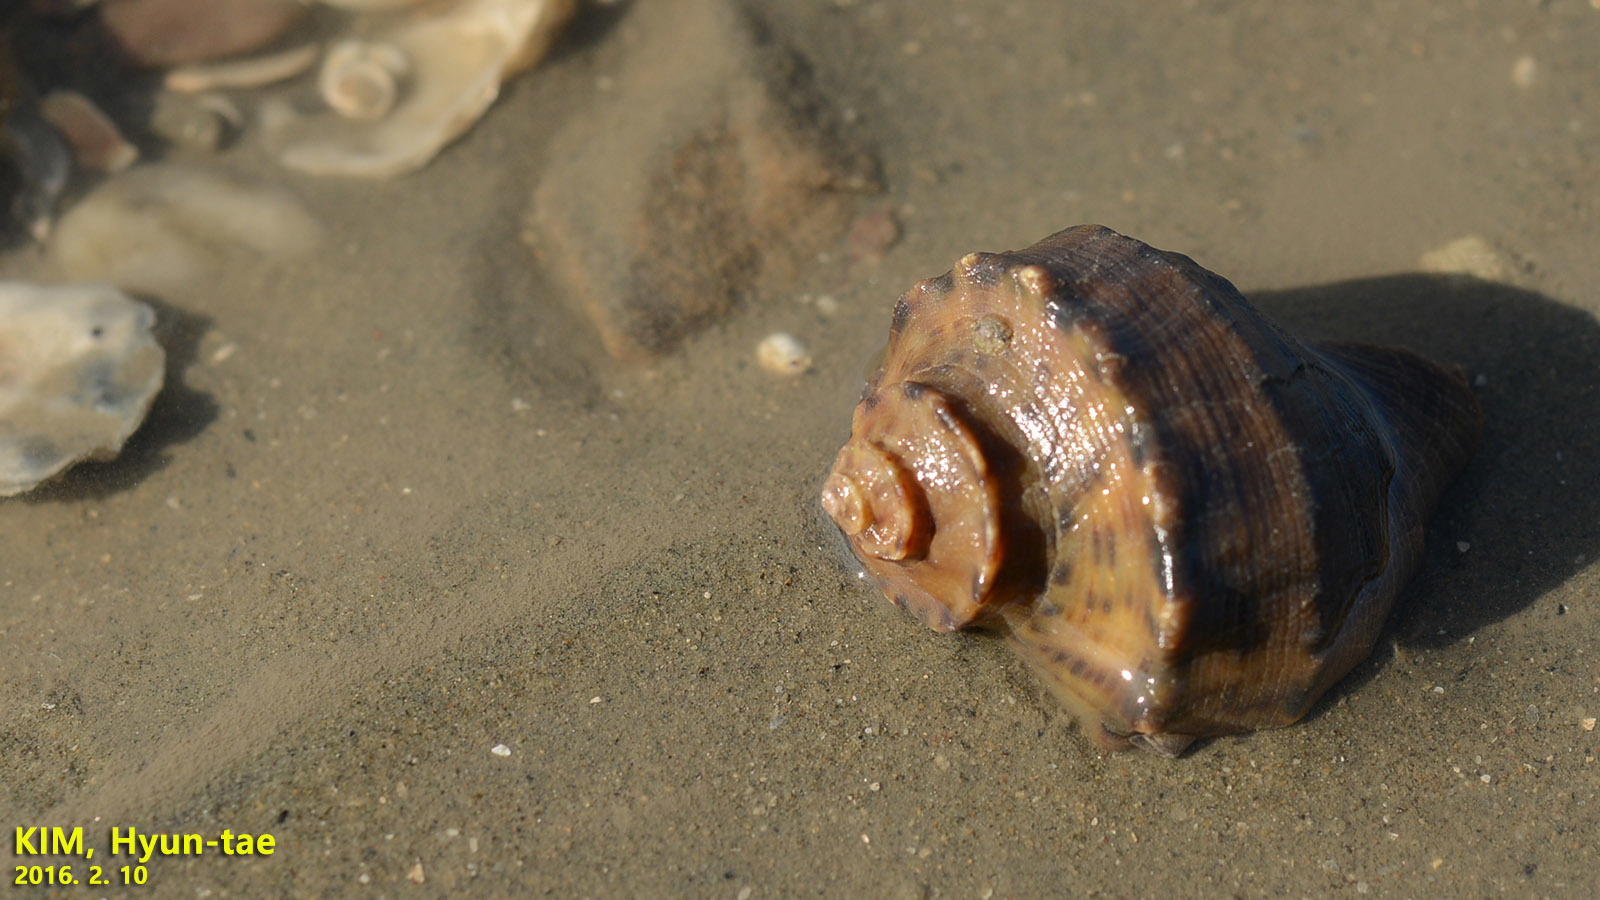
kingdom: Animalia
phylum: Mollusca
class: Gastropoda
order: Neogastropoda
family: Muricidae
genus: Rapana
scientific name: Rapana venosa
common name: Veined rapa whelk
